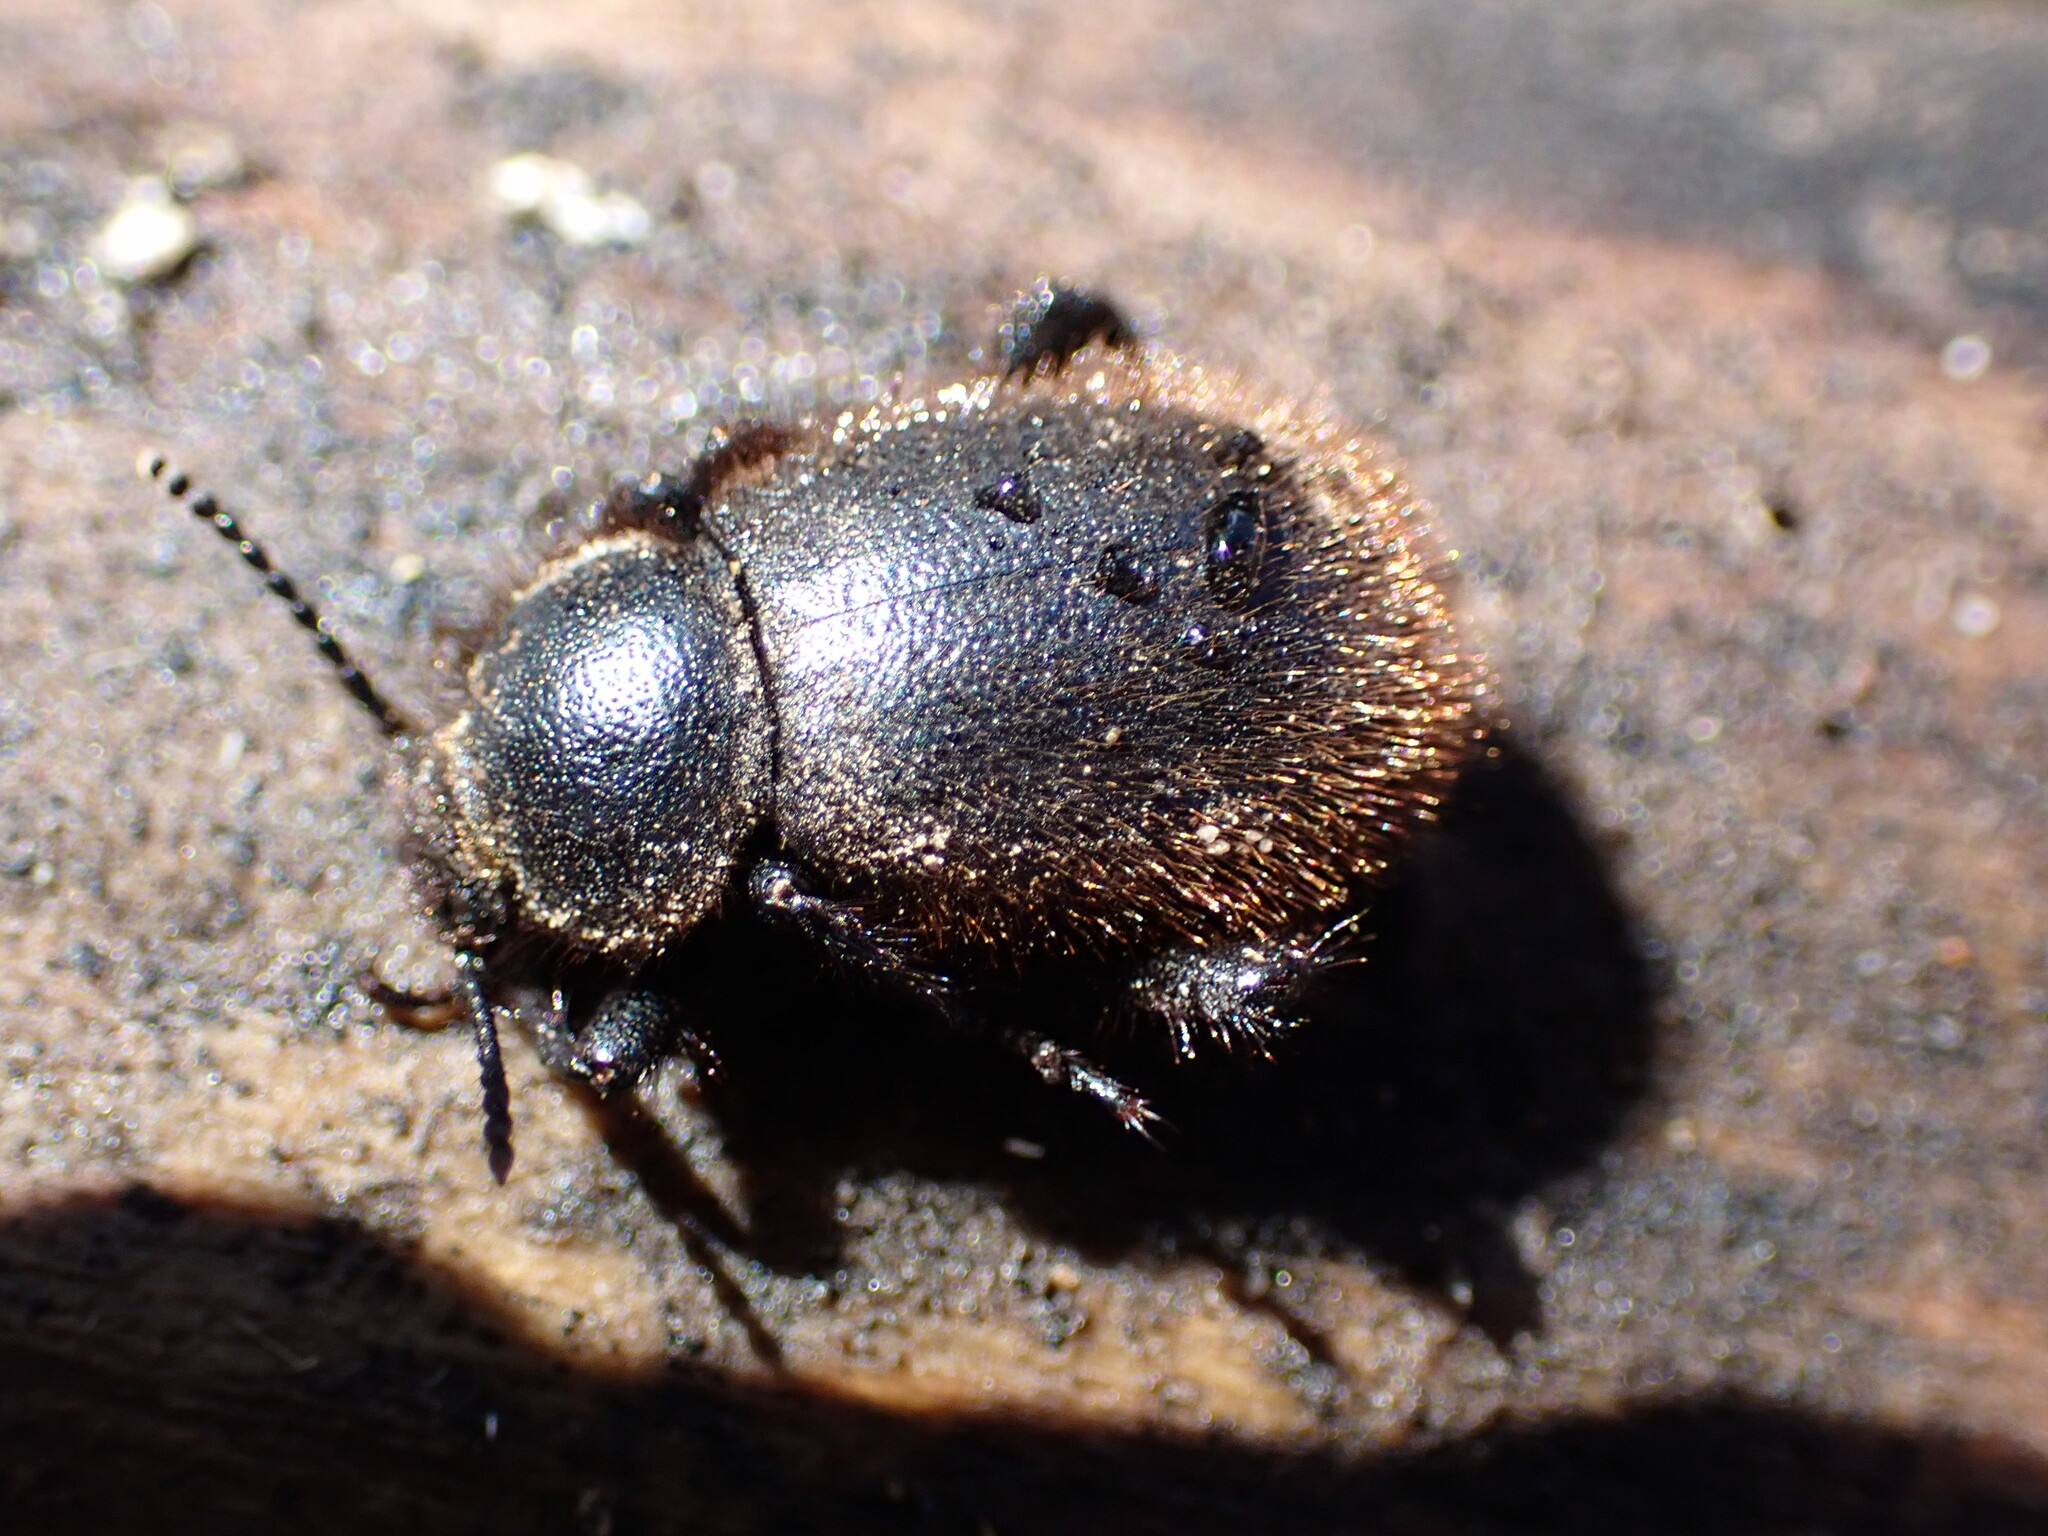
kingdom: Animalia
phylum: Arthropoda
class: Insecta
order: Coleoptera
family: Tenebrionidae
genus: Eleodes
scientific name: Eleodes osculans
